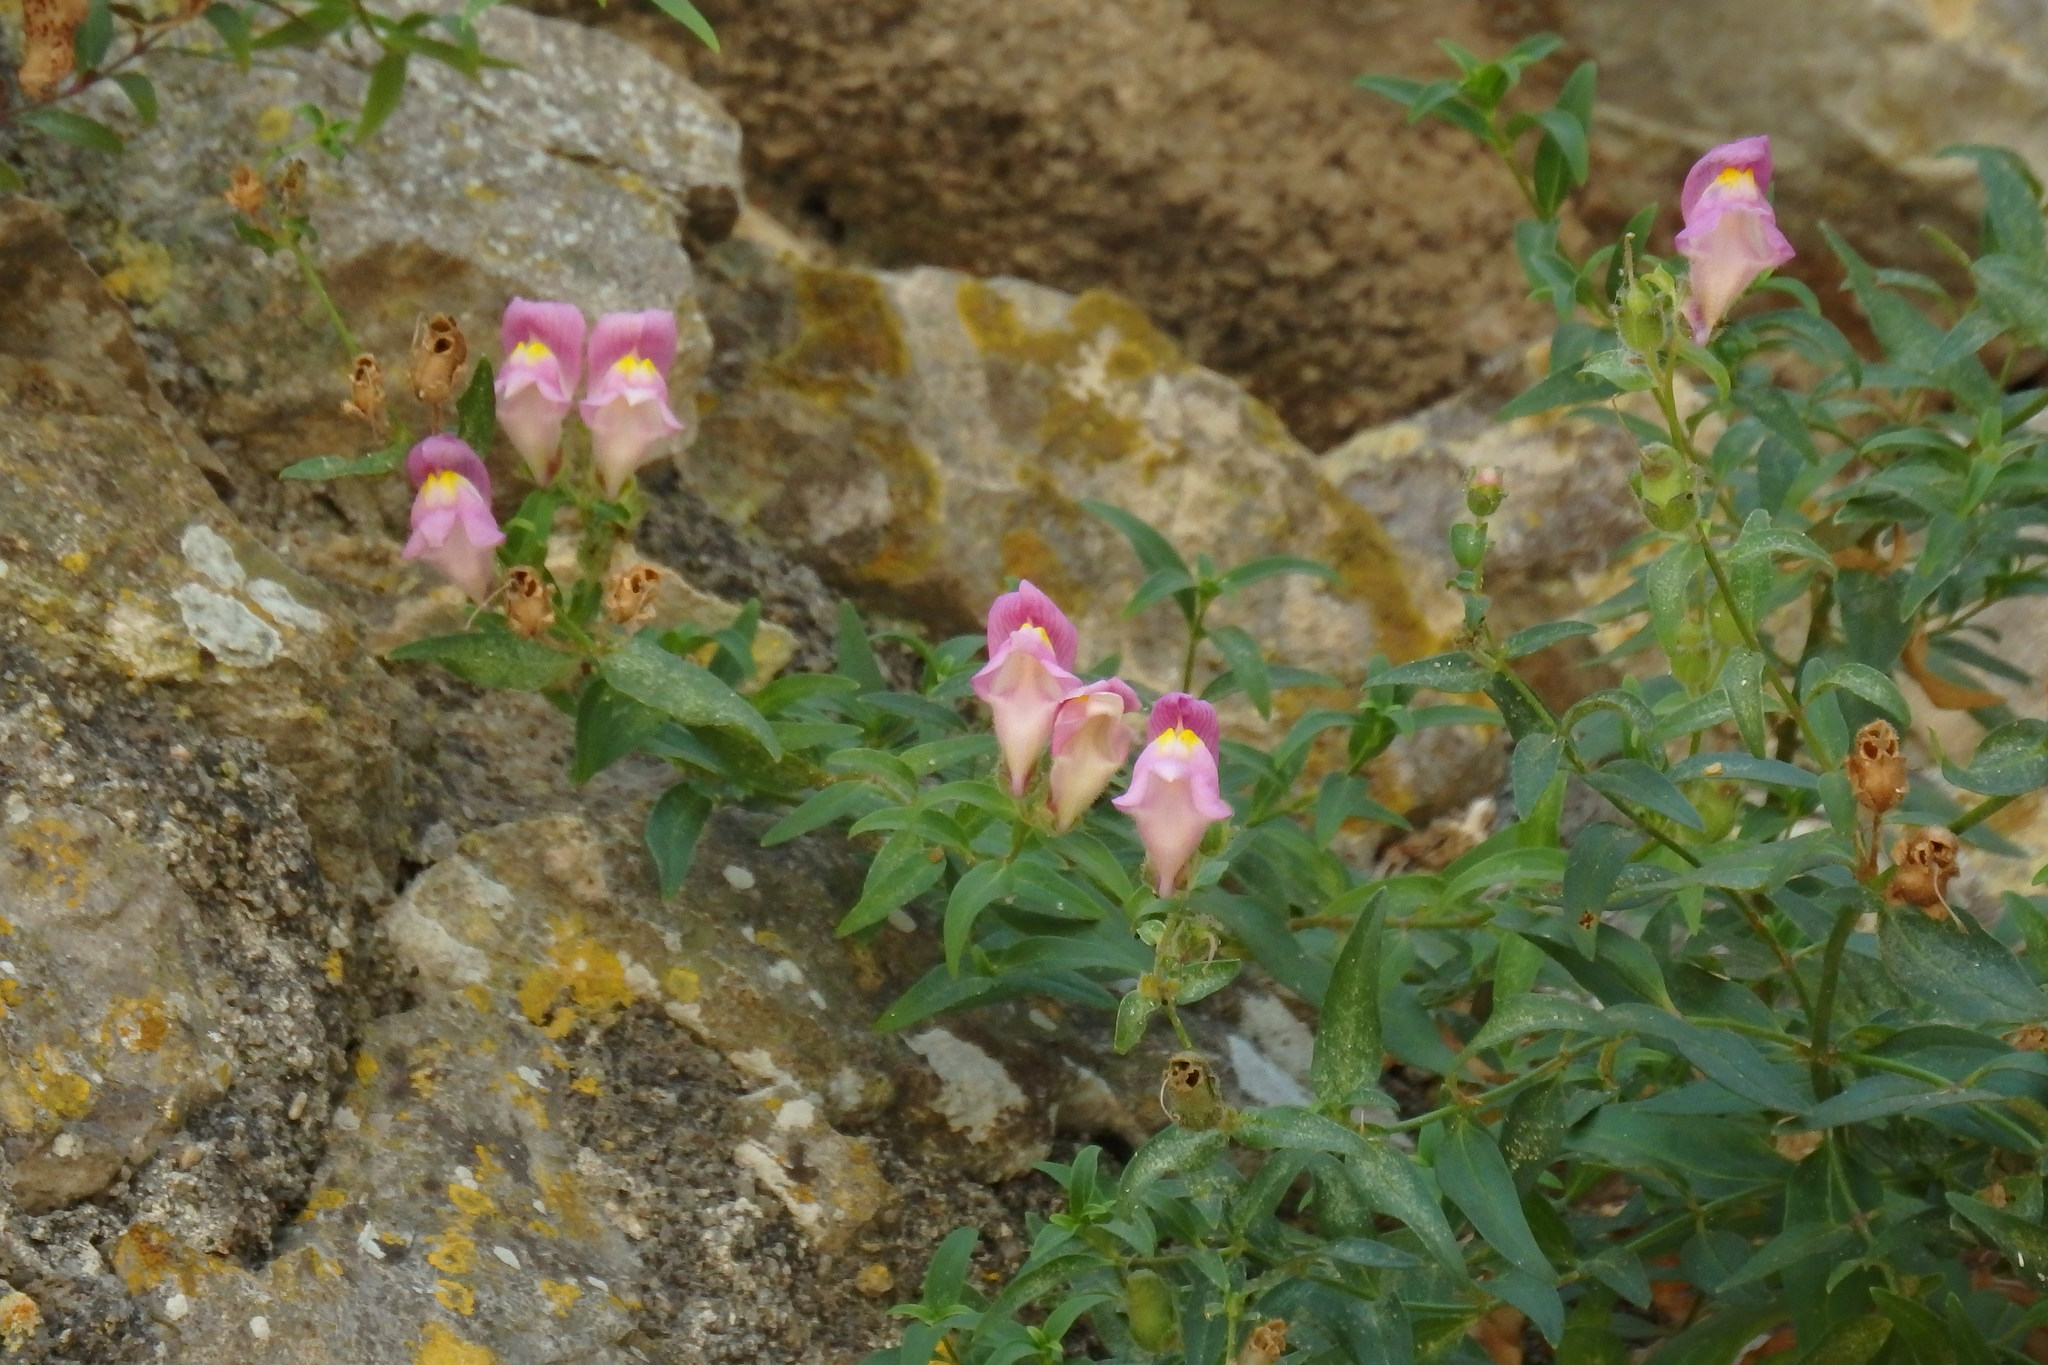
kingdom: Plantae
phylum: Tracheophyta
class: Magnoliopsida
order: Lamiales
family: Plantaginaceae
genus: Antirrhinum
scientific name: Antirrhinum linkianum
